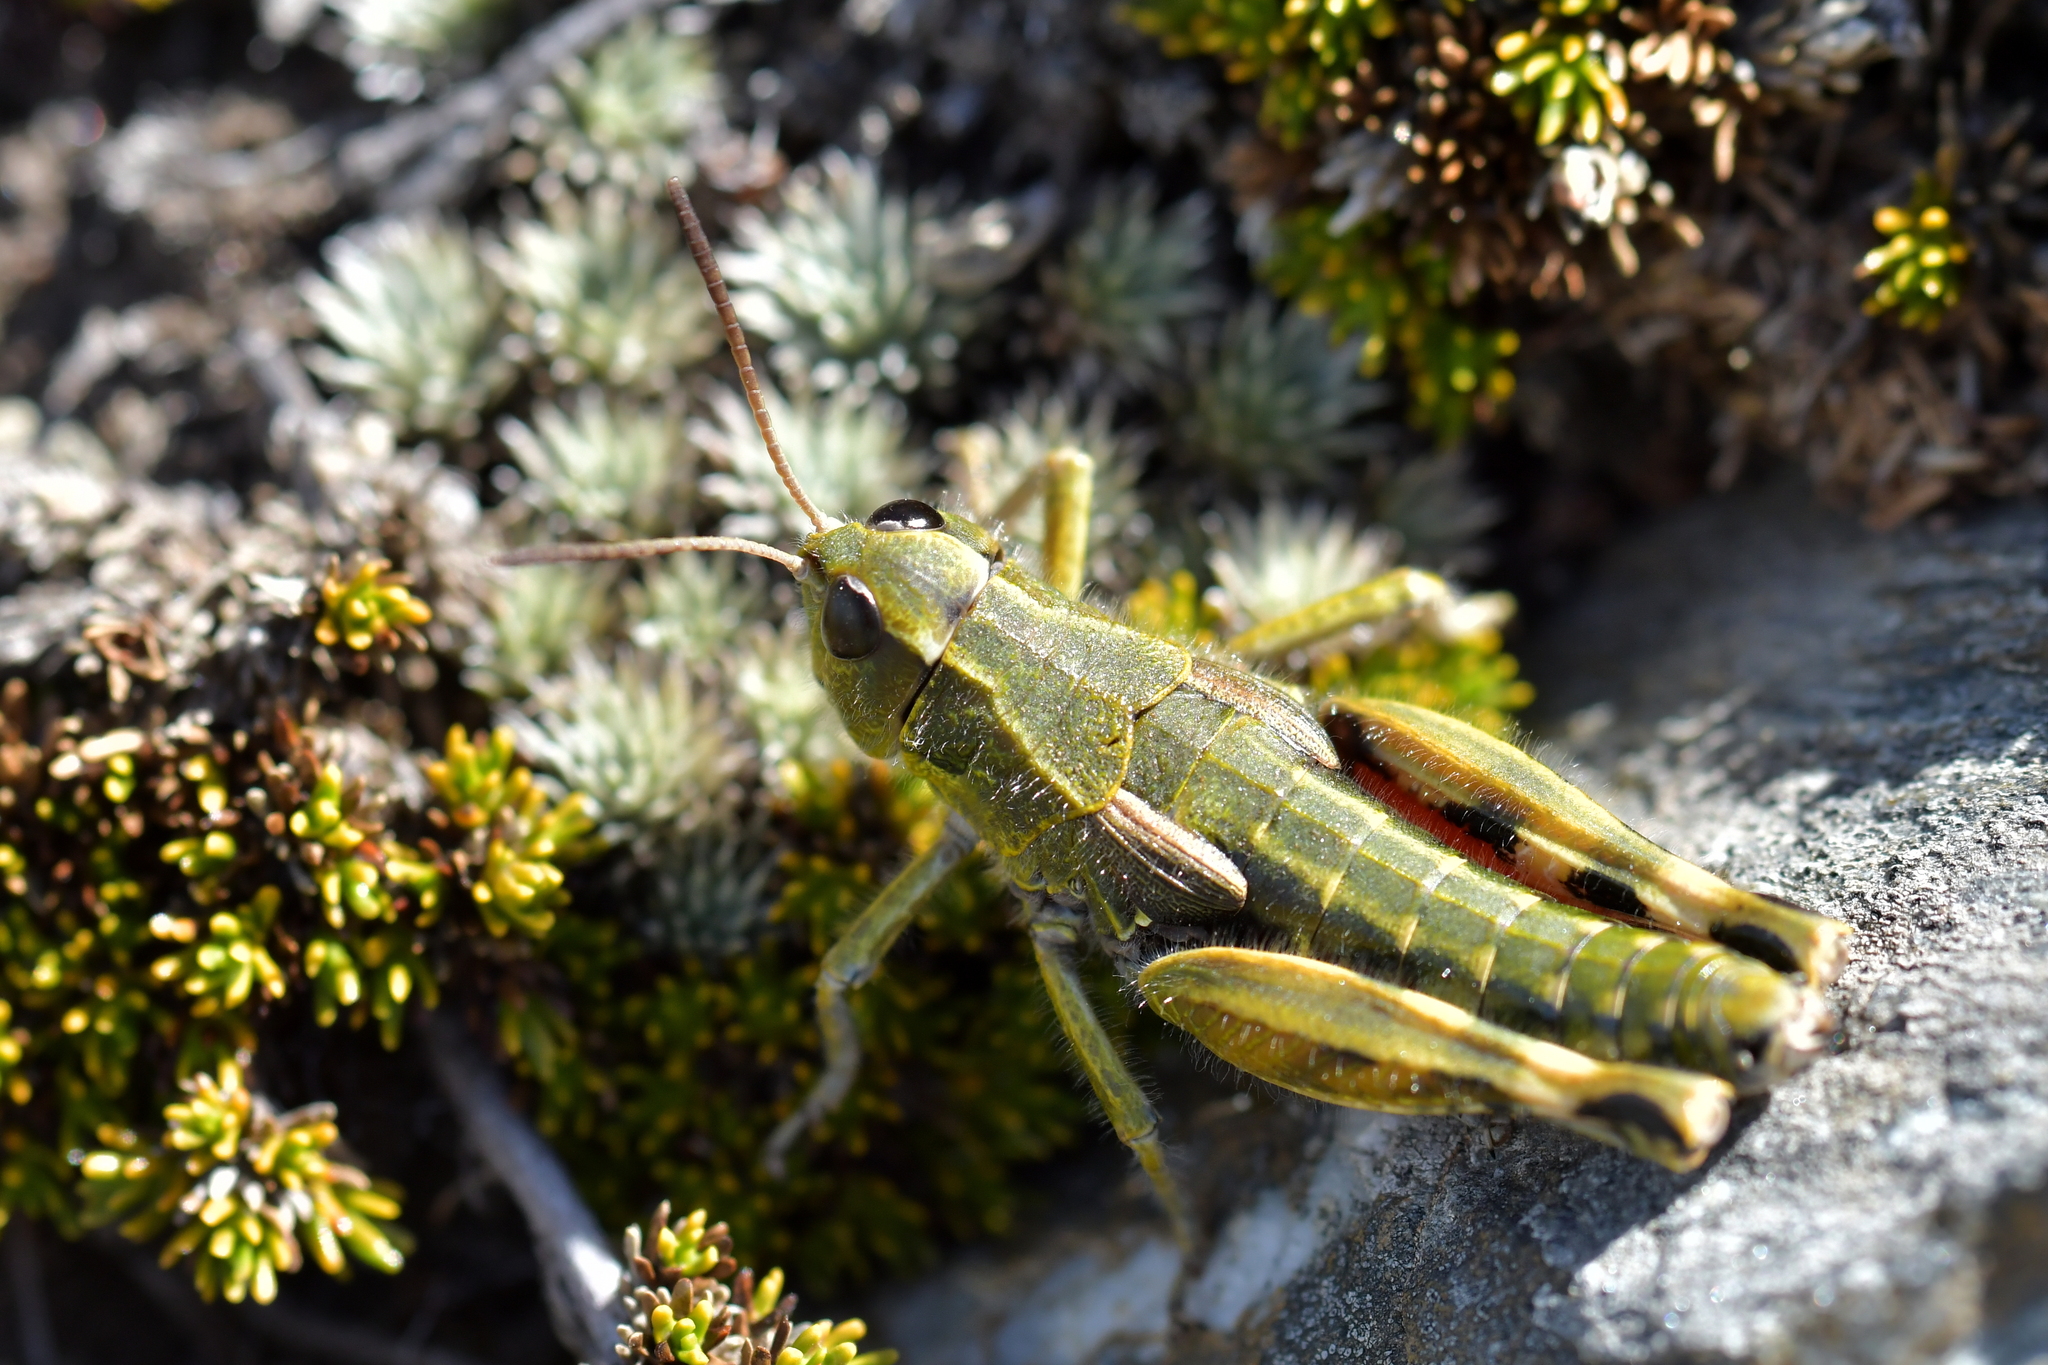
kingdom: Animalia
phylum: Arthropoda
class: Insecta
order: Orthoptera
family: Acrididae
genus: Sigaus
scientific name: Sigaus australis
